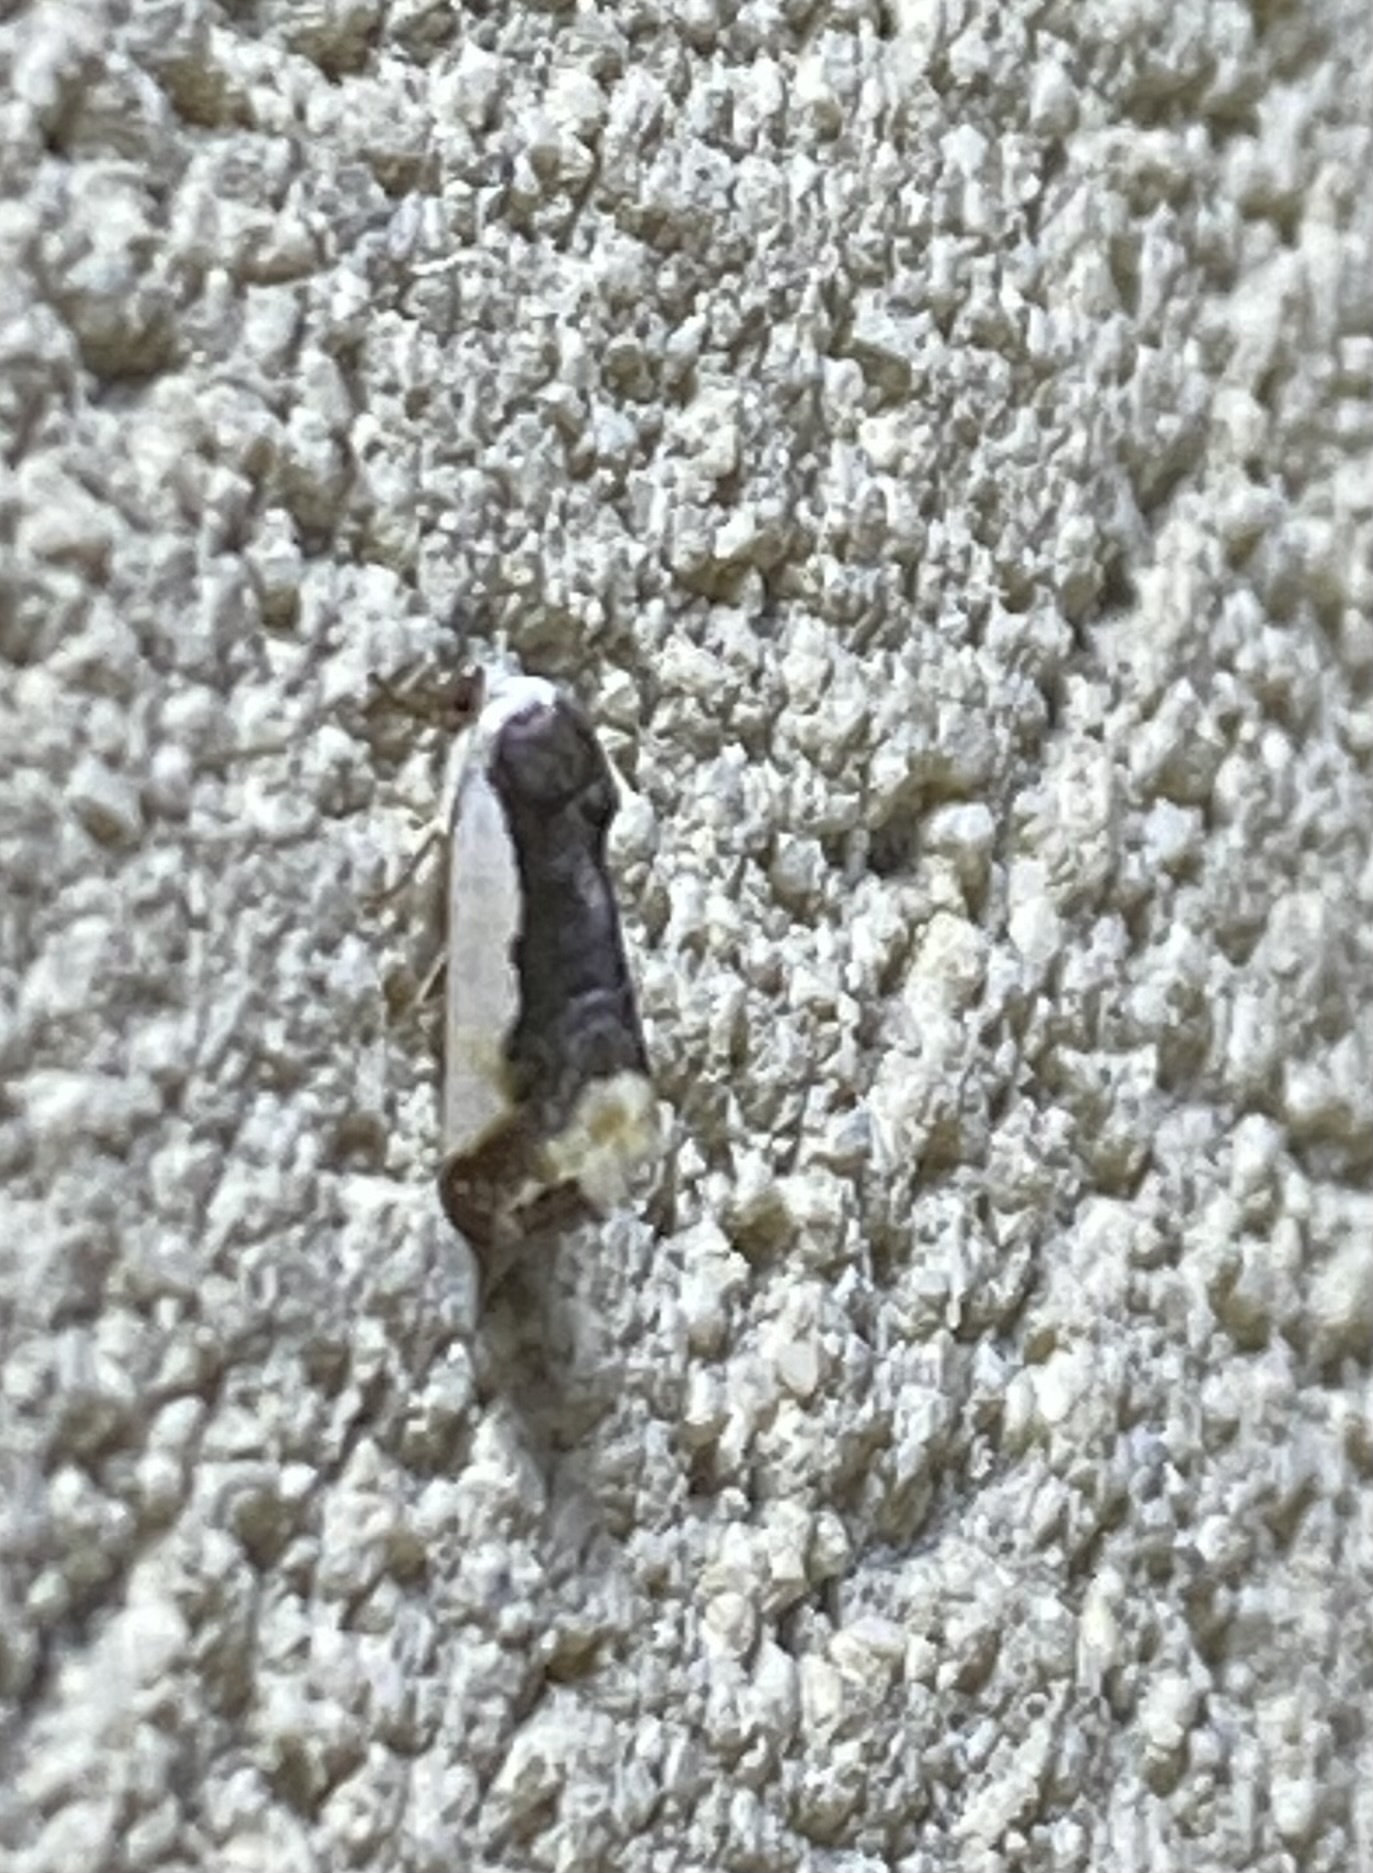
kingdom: Animalia
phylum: Arthropoda
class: Insecta
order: Lepidoptera
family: Noctuidae
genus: Acontia
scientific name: Acontia Tarache expolita
